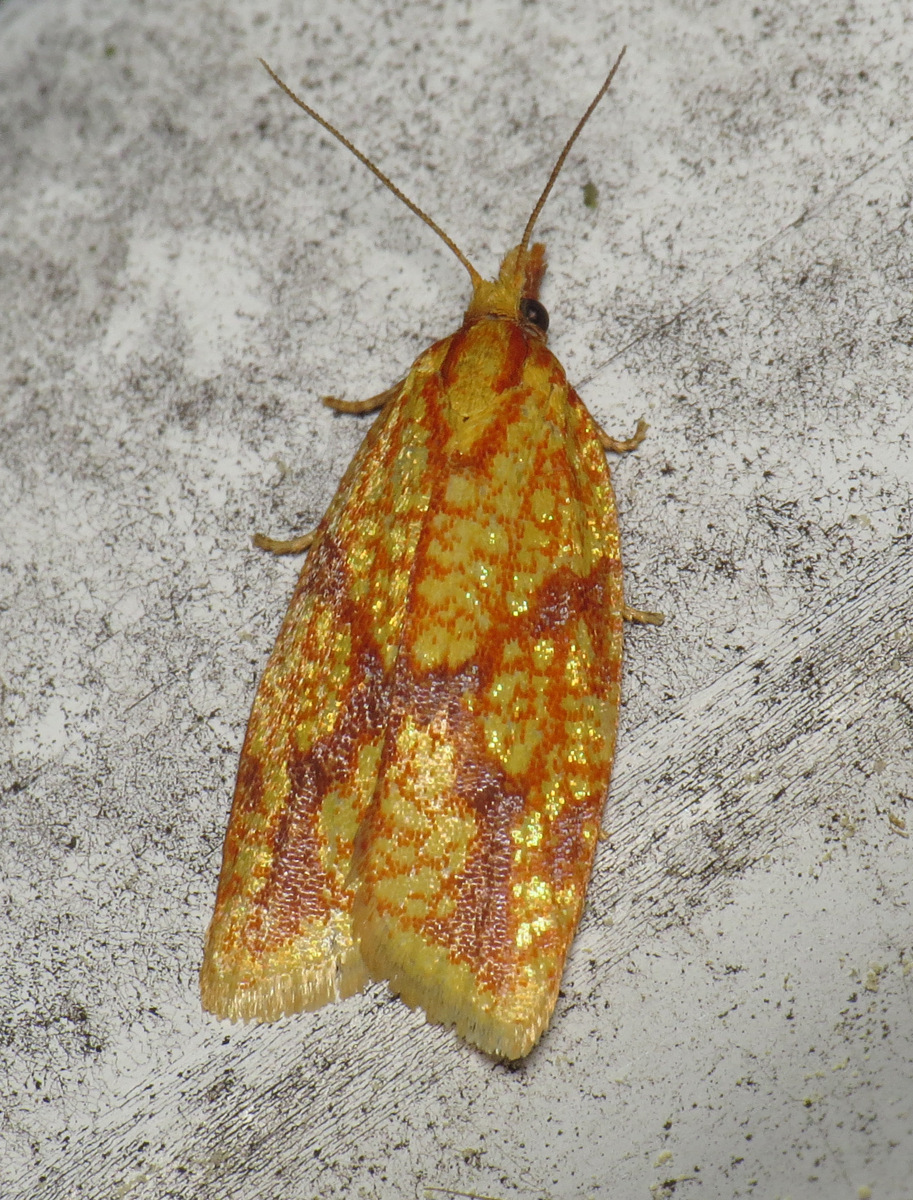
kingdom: Animalia
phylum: Arthropoda
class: Insecta
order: Lepidoptera
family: Tortricidae
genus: Sparganothis
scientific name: Sparganothis sulfureana
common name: Sparganothis fruitworm moth
